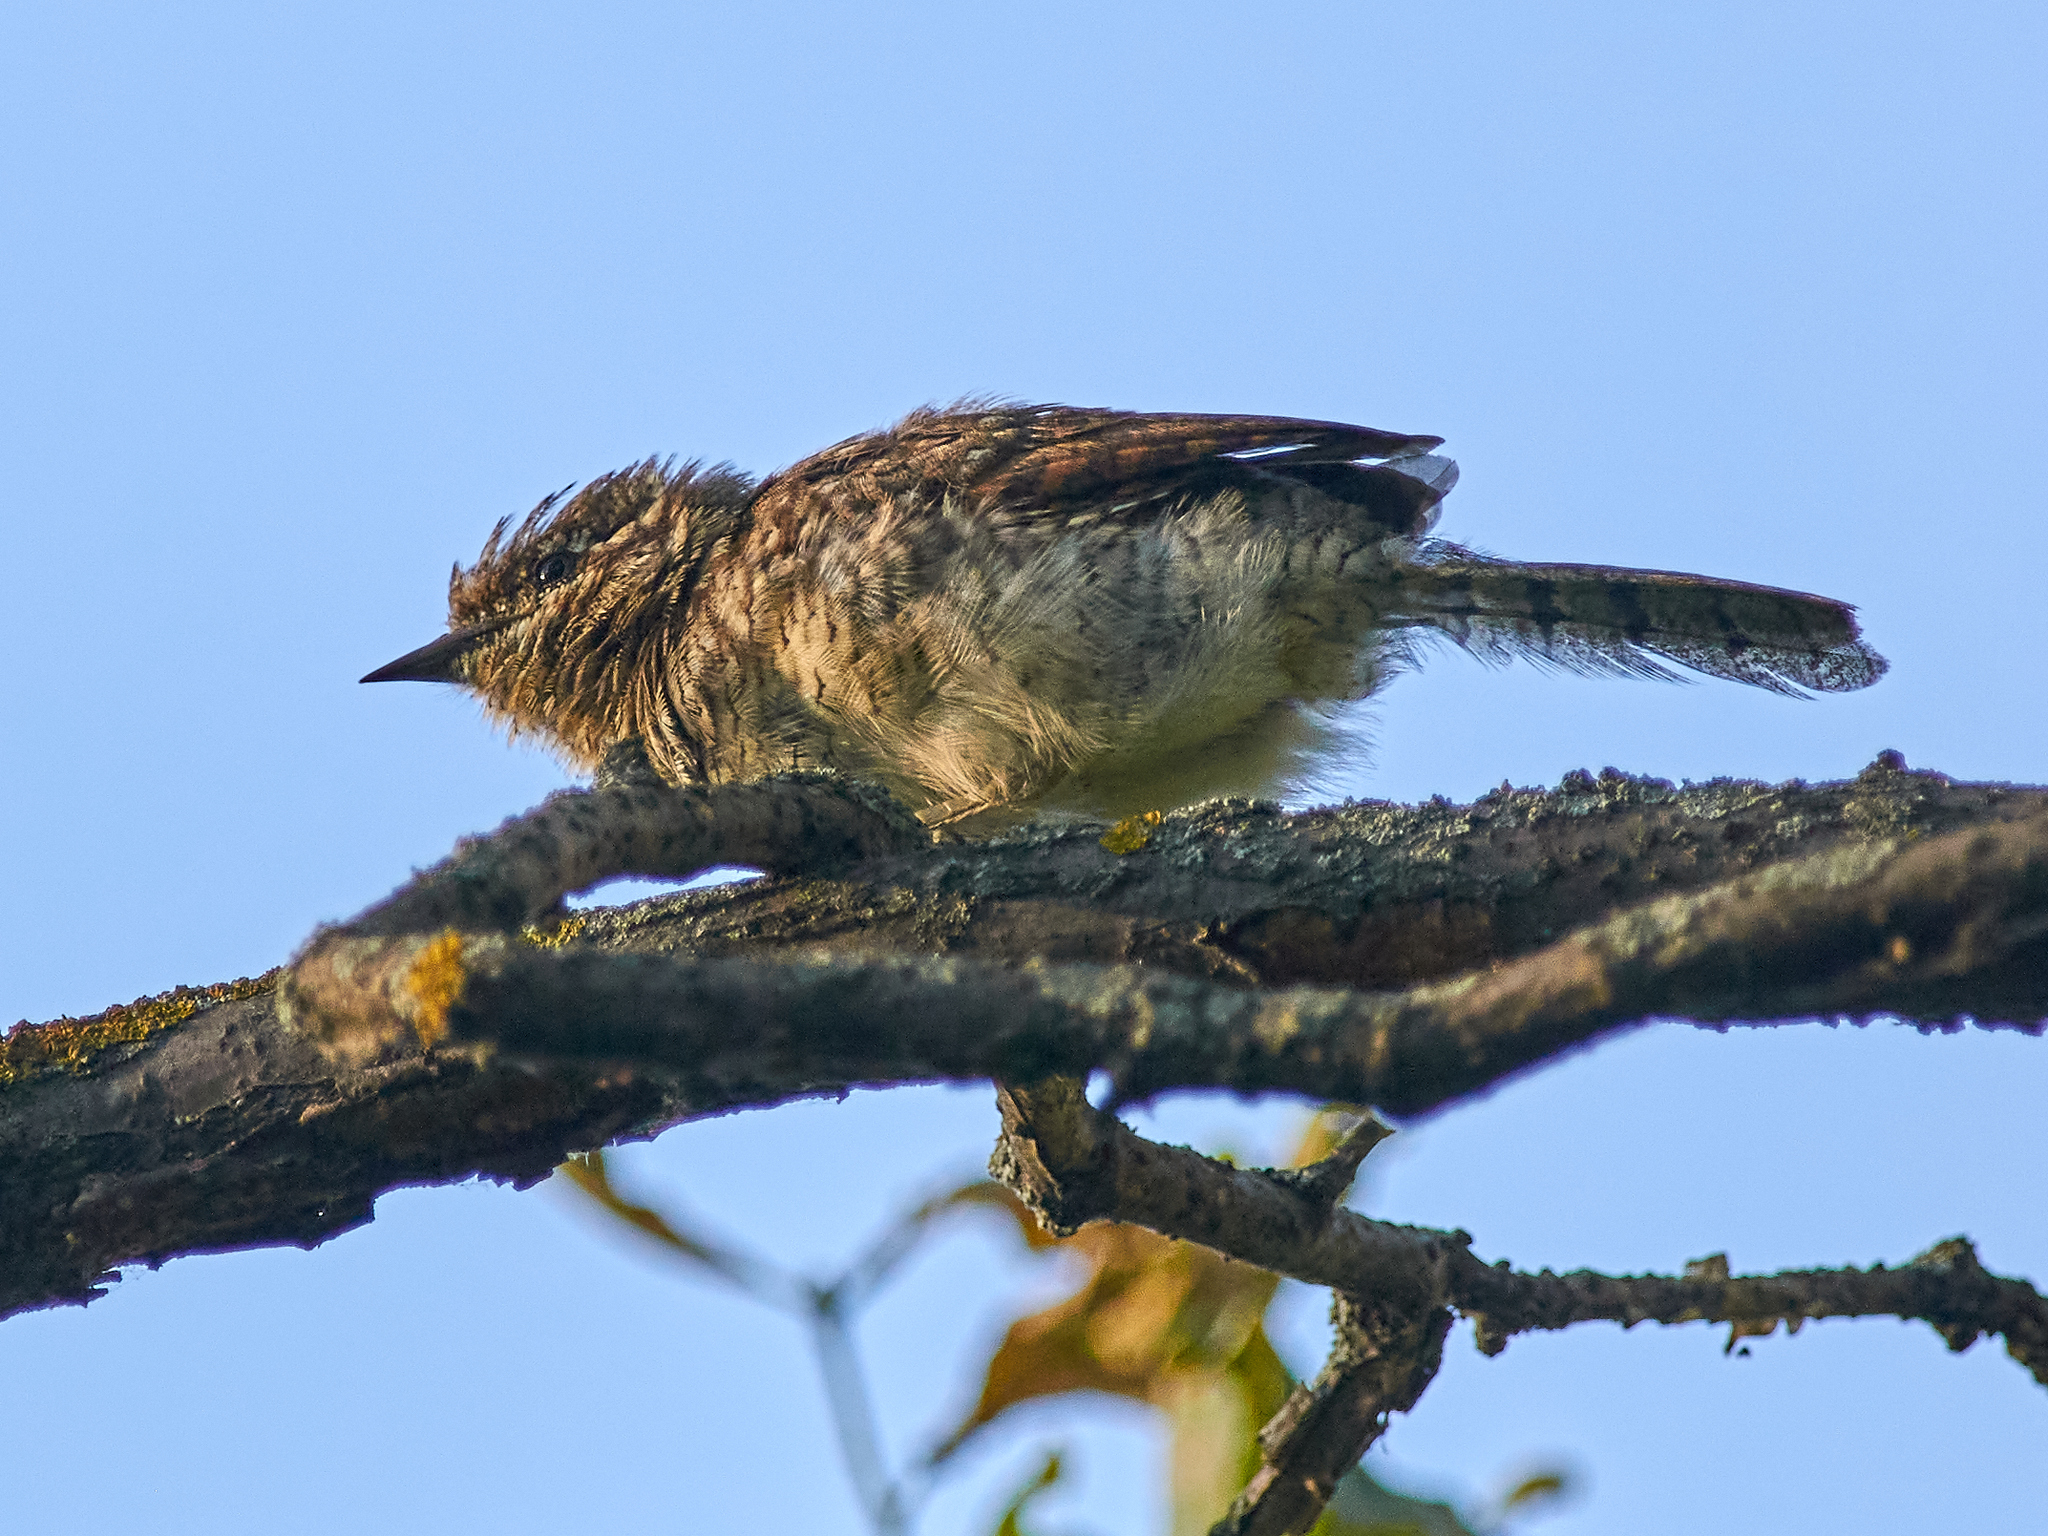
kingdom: Animalia
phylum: Chordata
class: Aves
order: Piciformes
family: Picidae
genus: Jynx
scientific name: Jynx torquilla
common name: Eurasian wryneck
